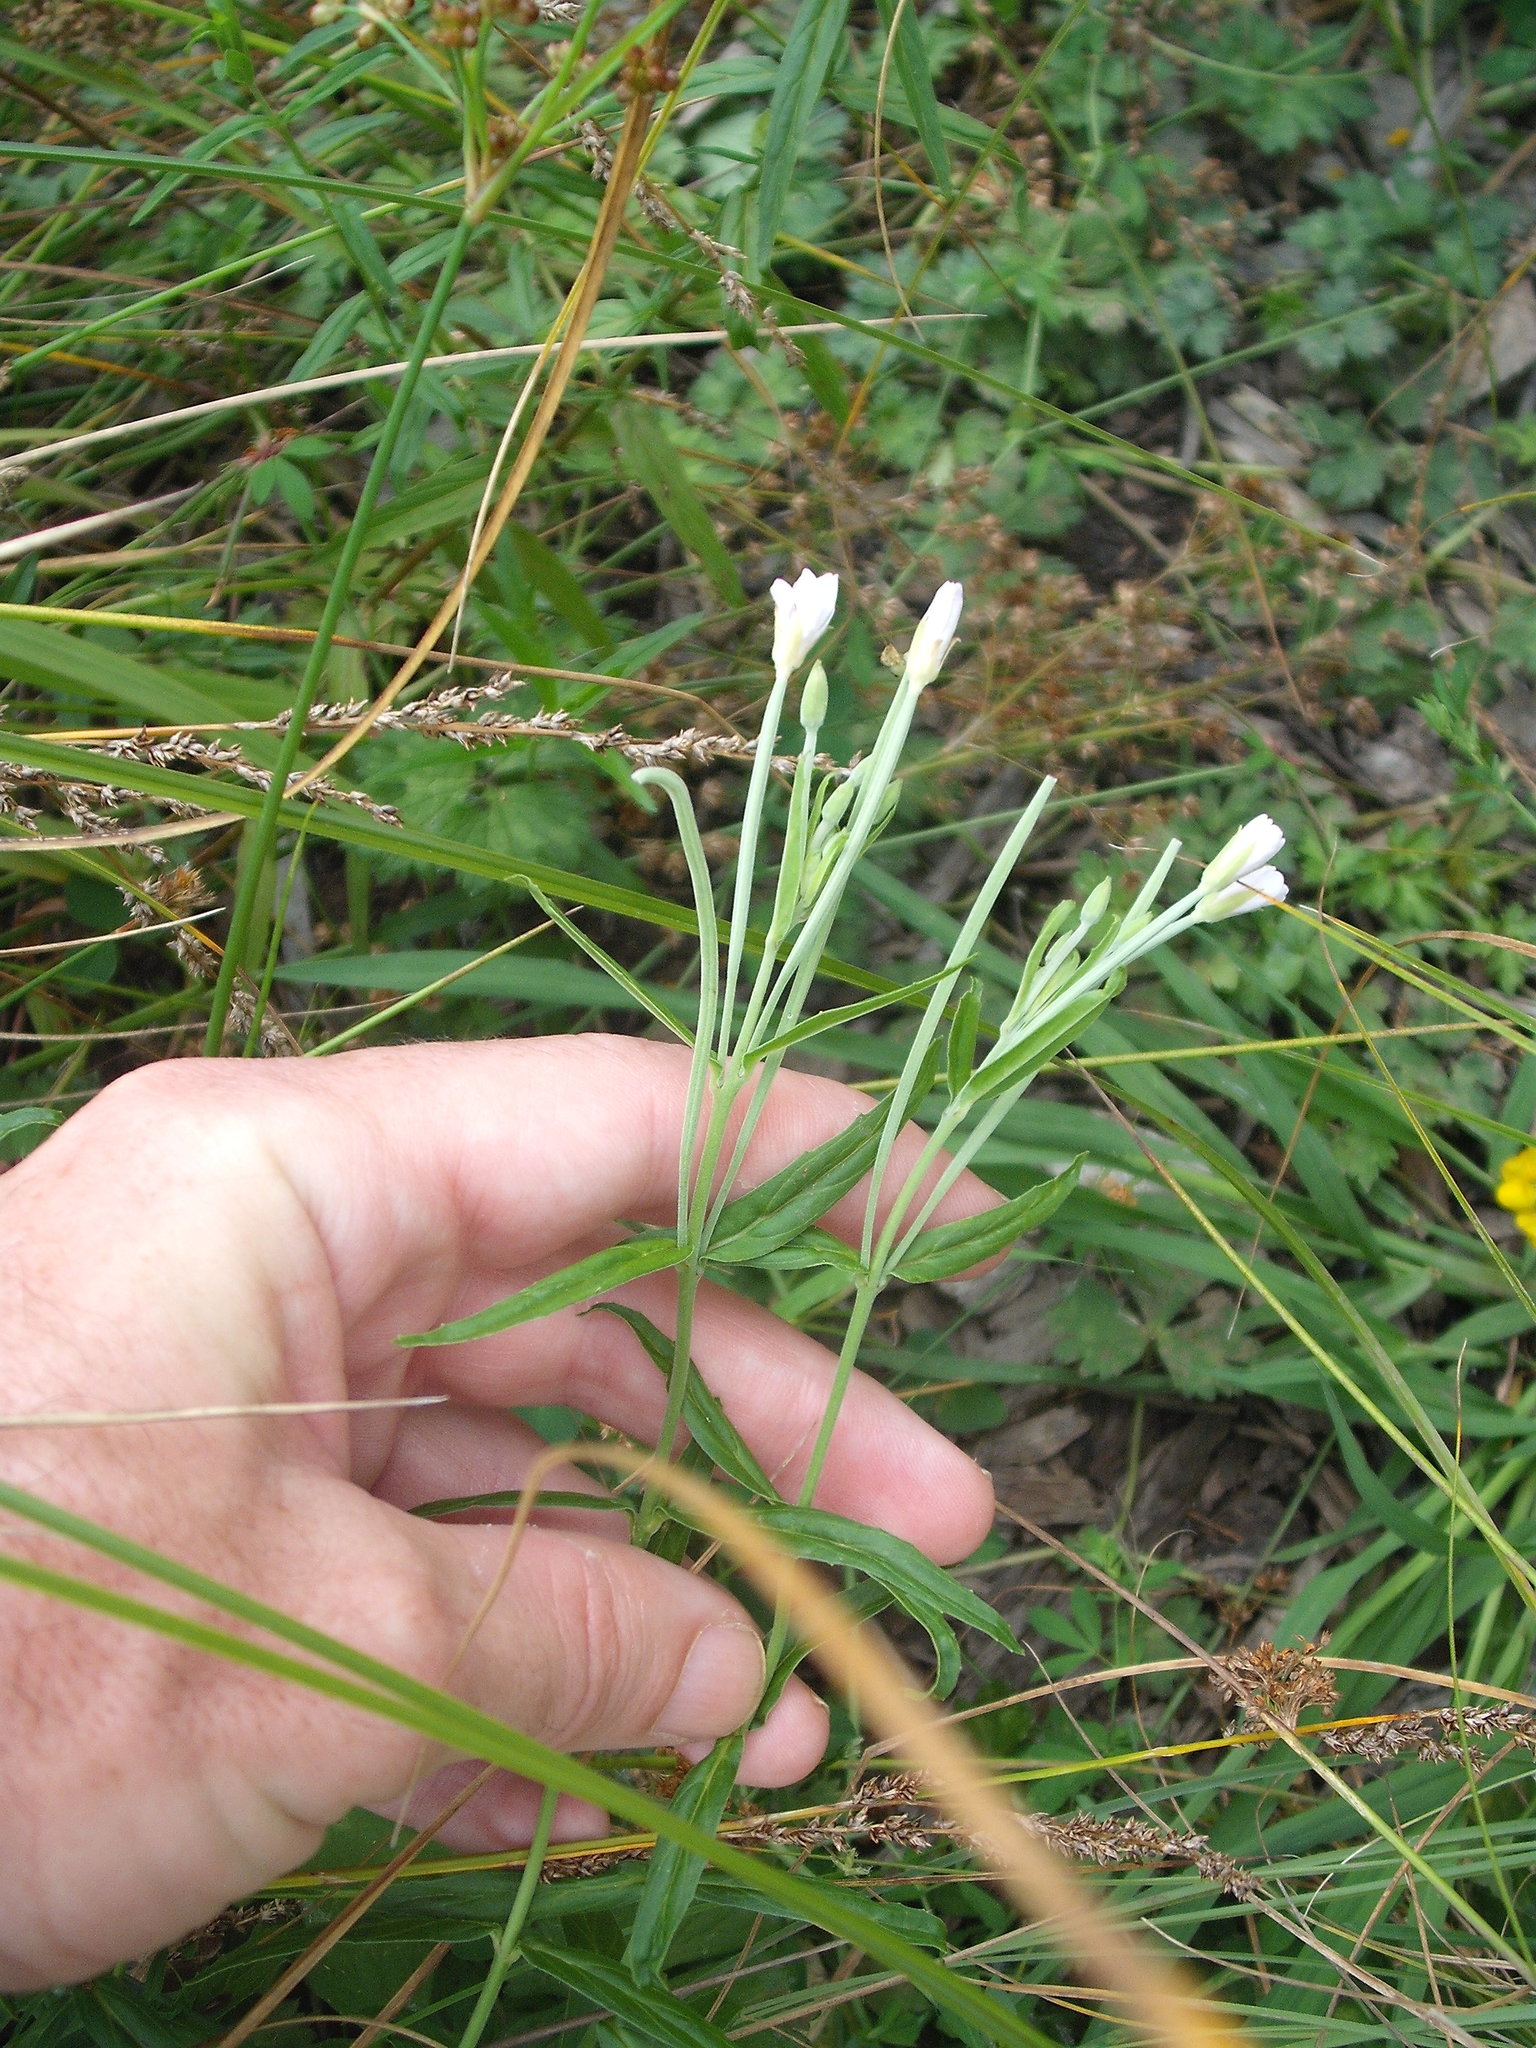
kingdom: Plantae
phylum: Tracheophyta
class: Magnoliopsida
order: Myrtales
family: Onagraceae
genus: Epilobium
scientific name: Epilobium pallidiflorum
